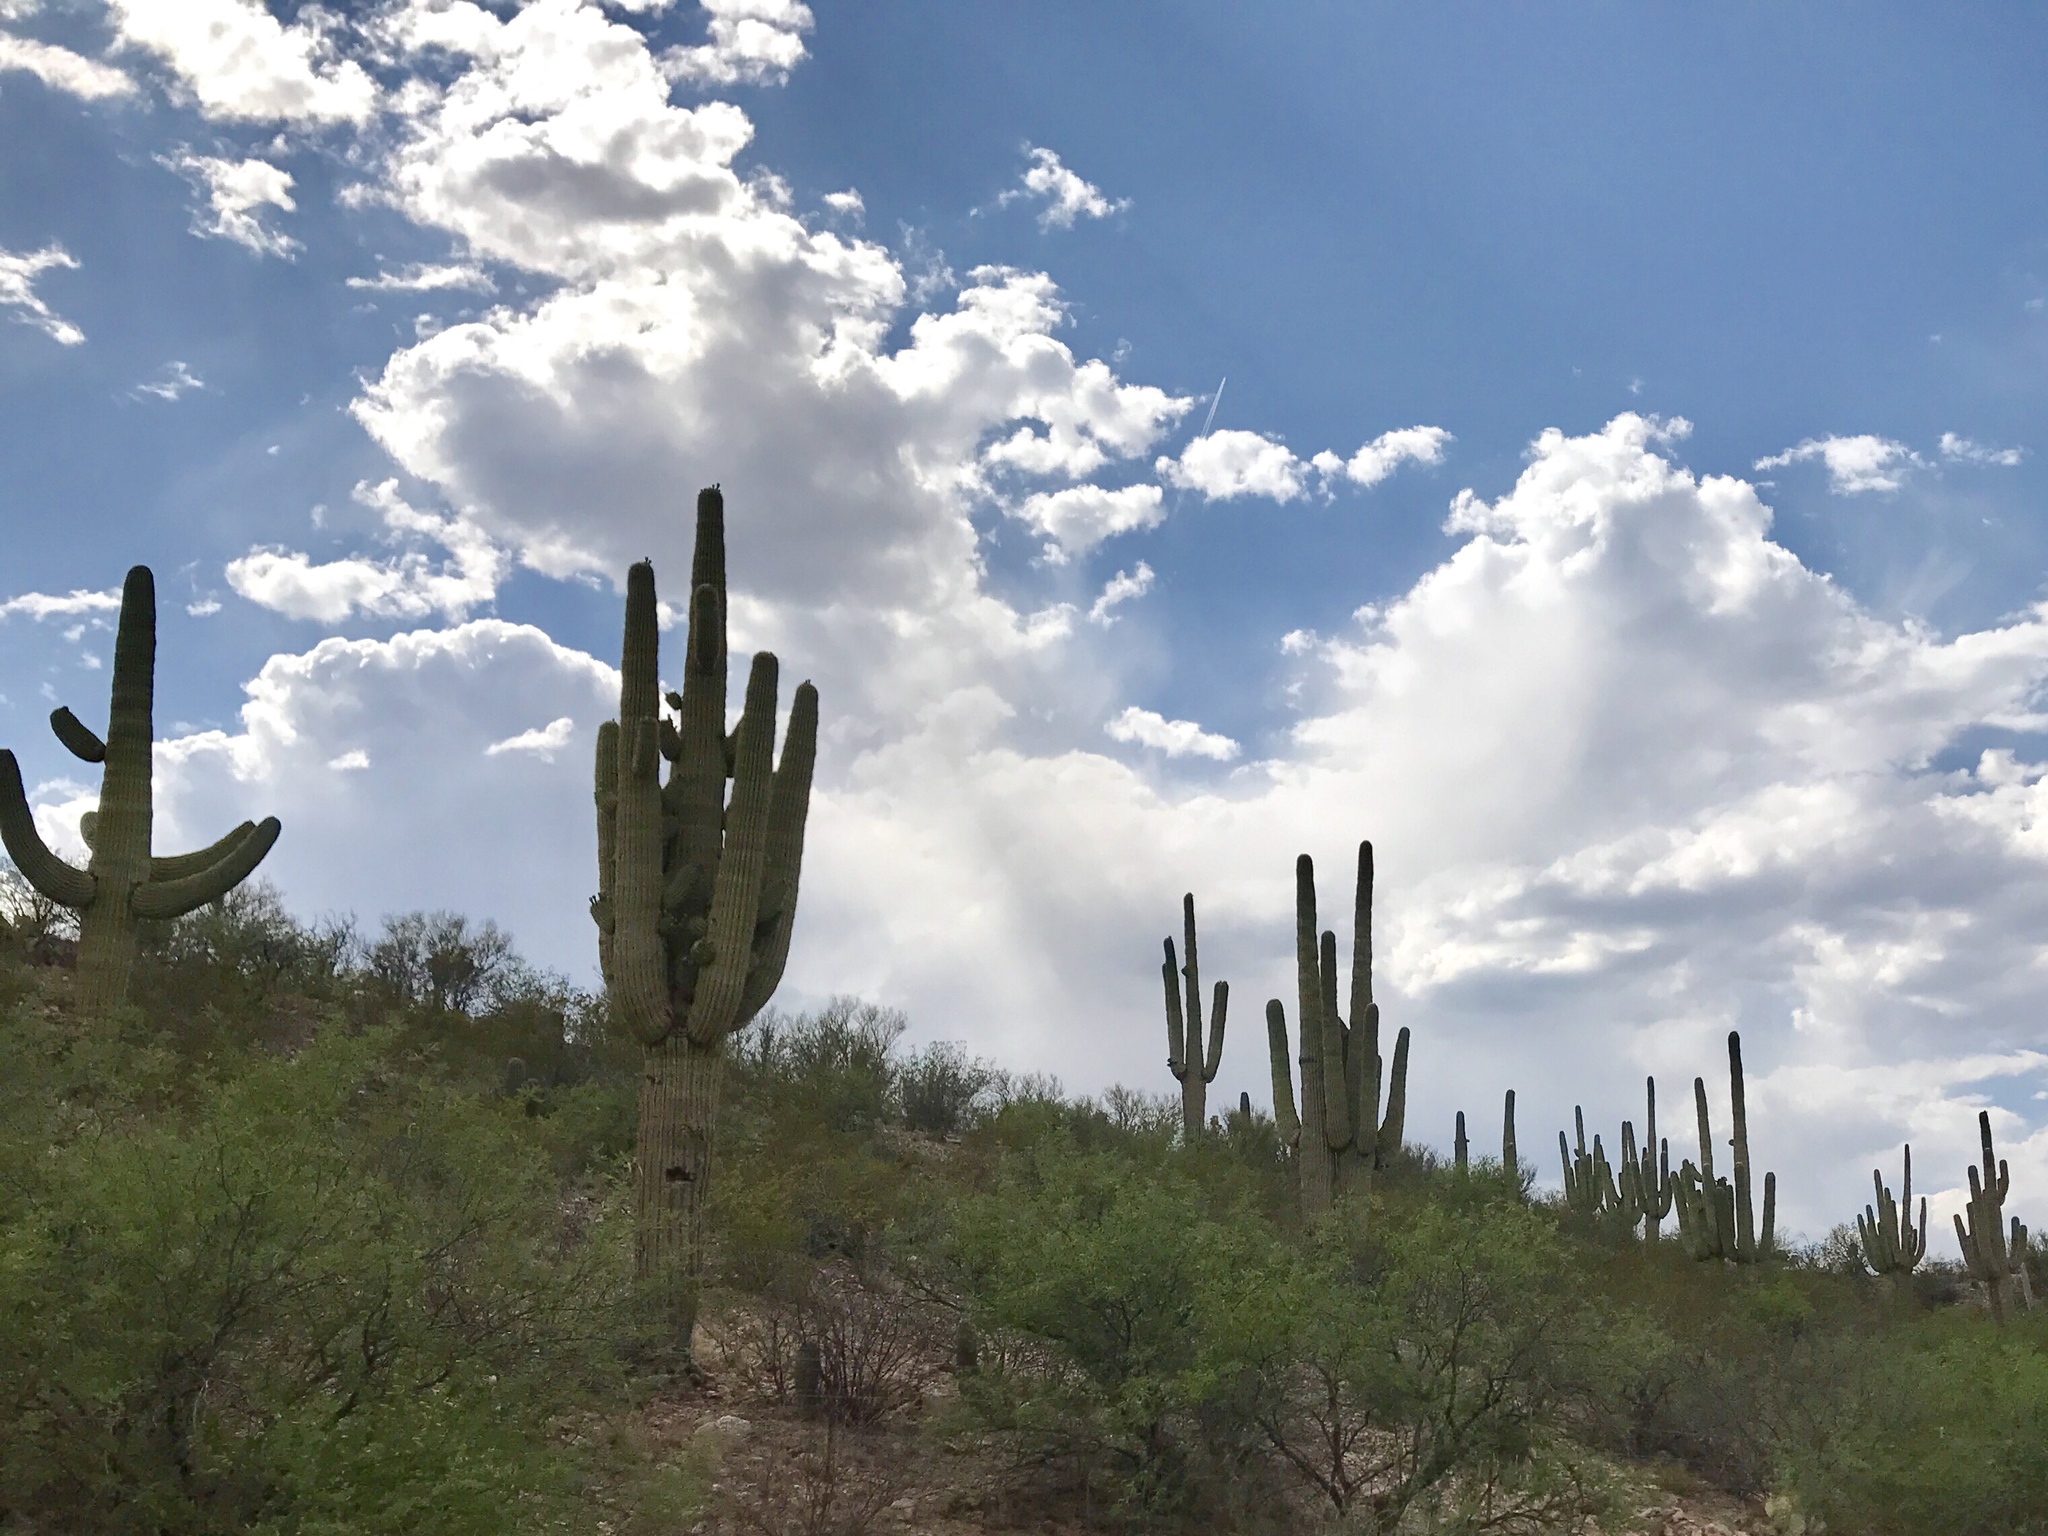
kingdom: Plantae
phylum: Tracheophyta
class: Magnoliopsida
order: Caryophyllales
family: Cactaceae
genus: Carnegiea
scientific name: Carnegiea gigantea
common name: Saguaro
